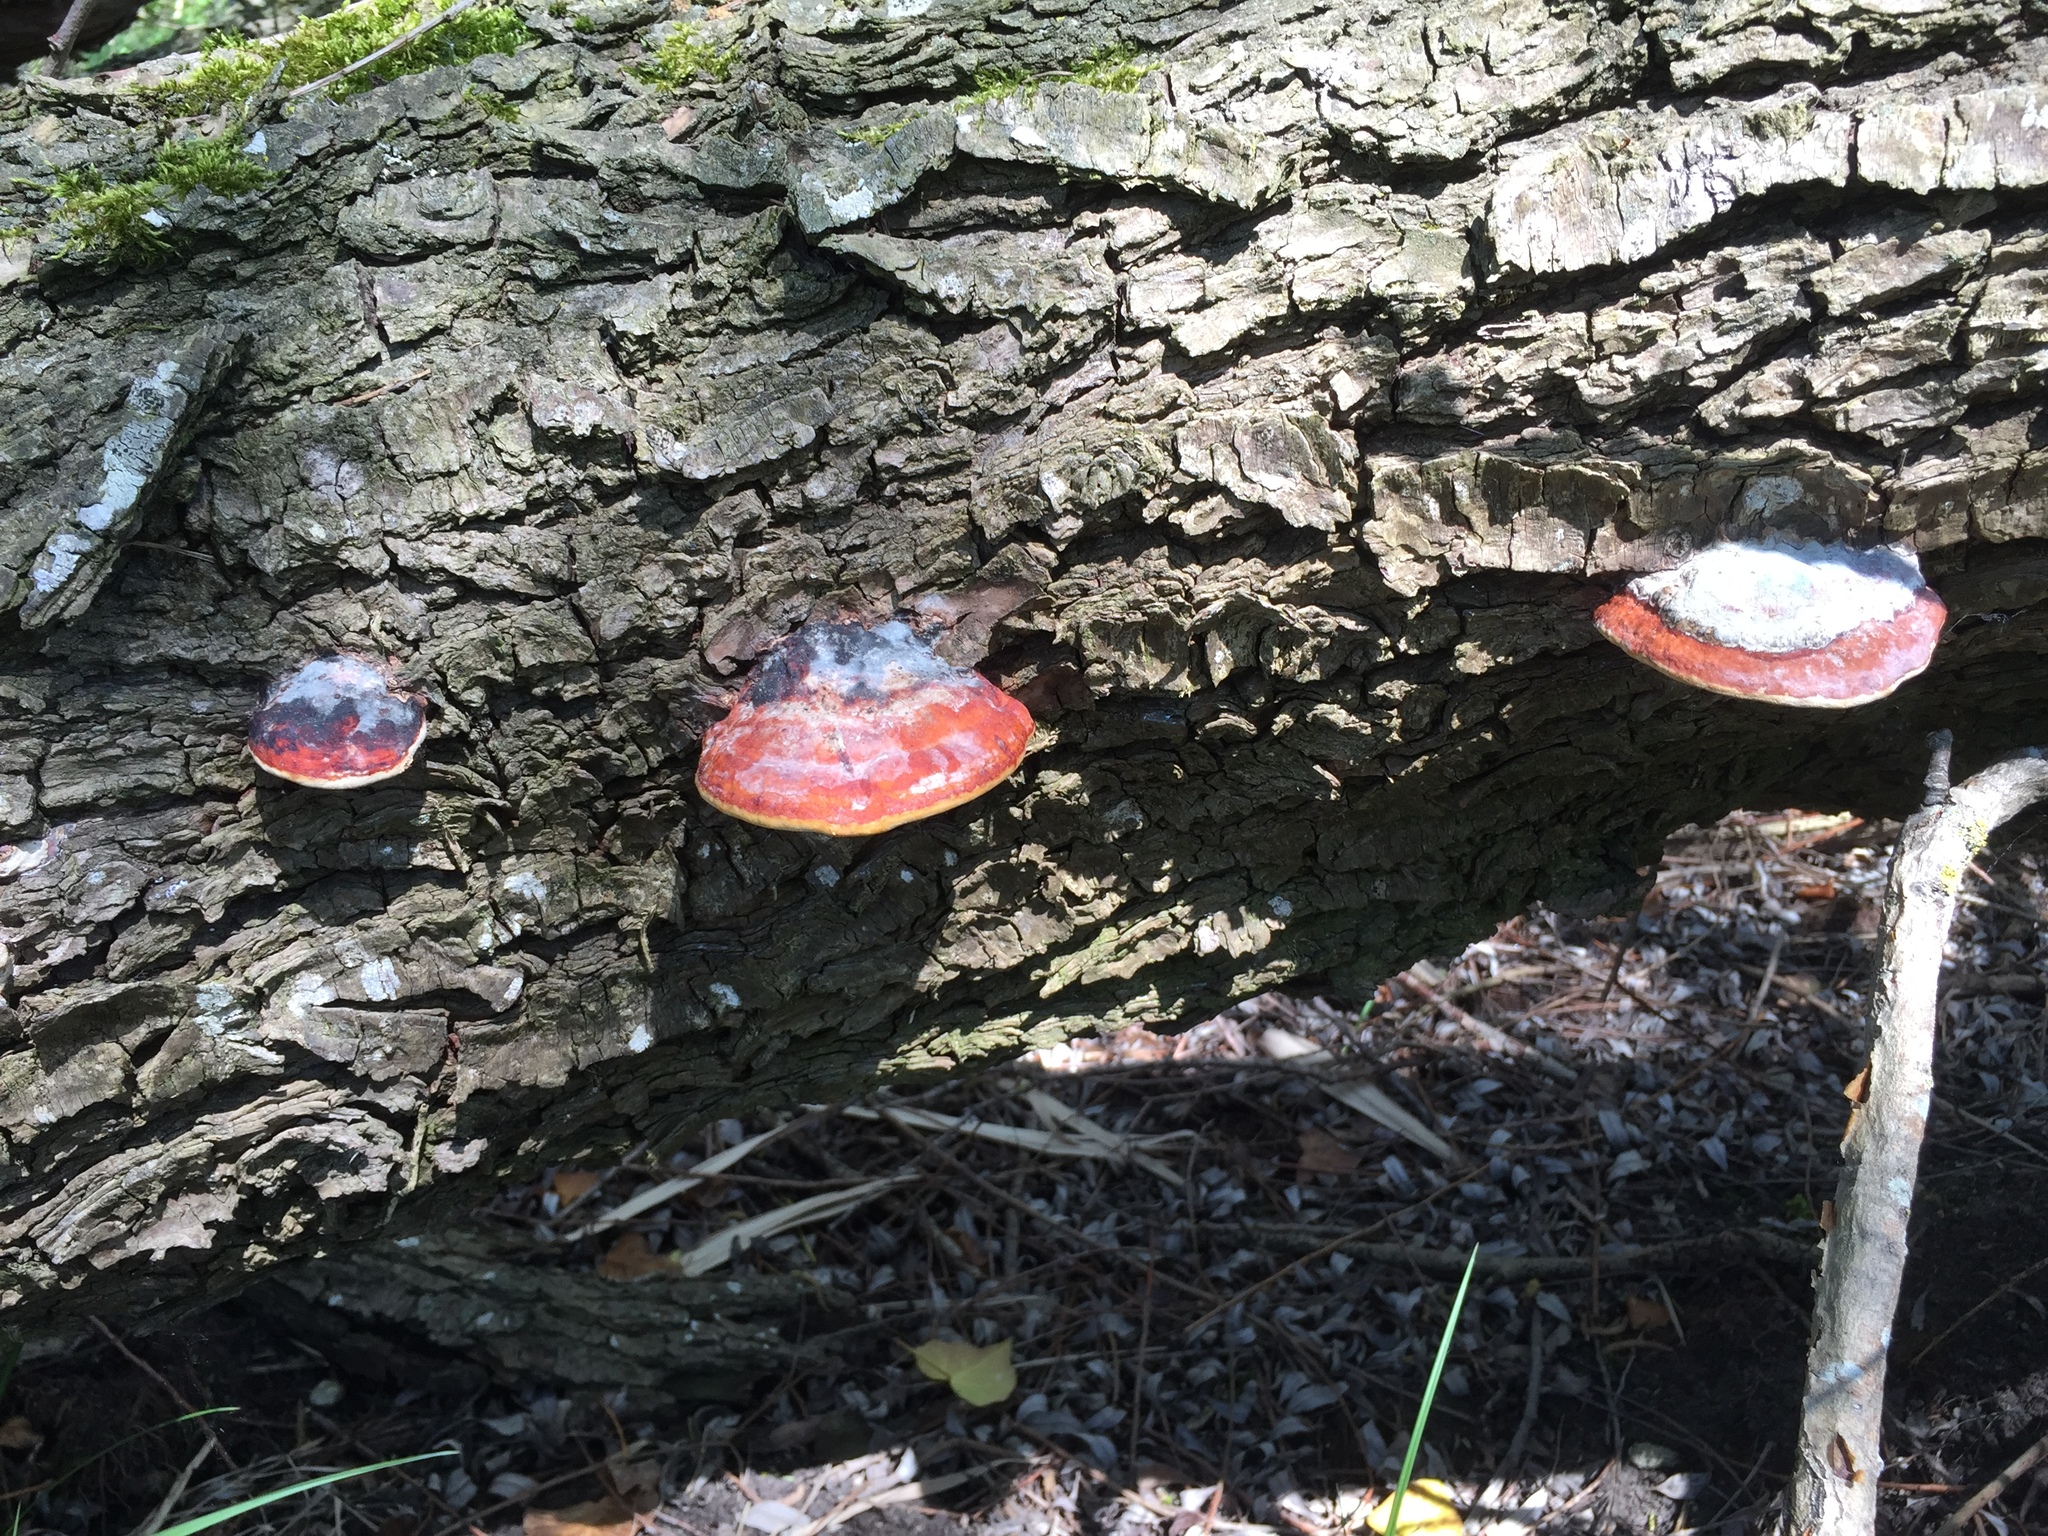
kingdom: Fungi
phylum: Basidiomycota
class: Agaricomycetes
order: Polyporales
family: Fomitopsidaceae
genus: Fomitopsis
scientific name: Fomitopsis pinicola
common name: Red-belted bracket
